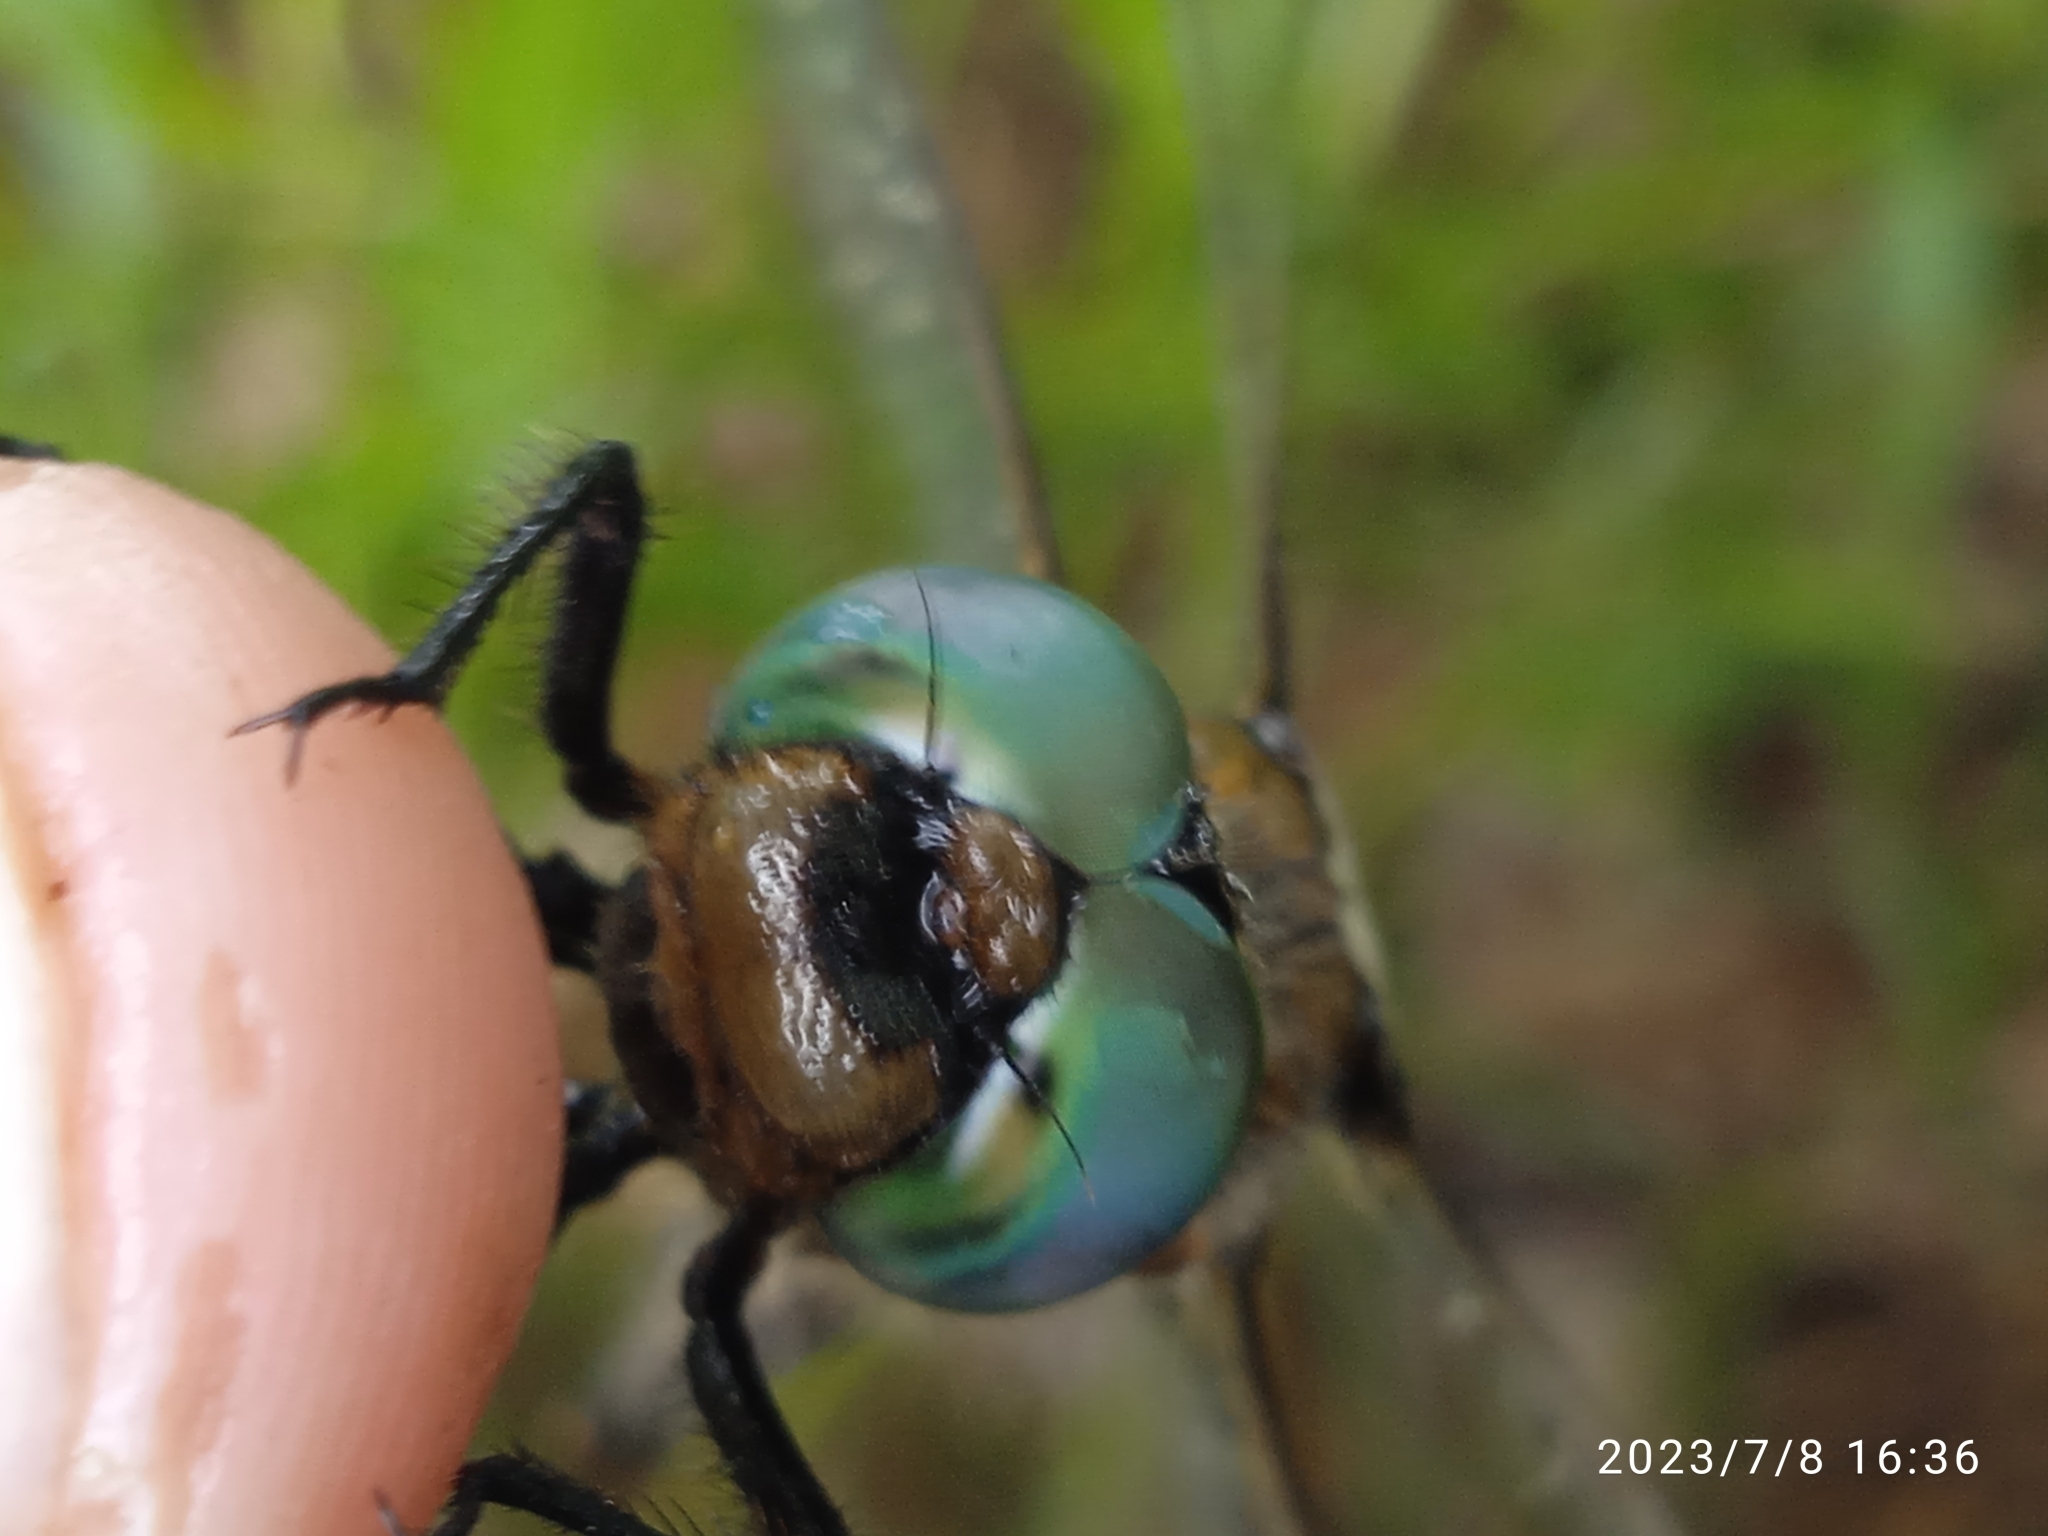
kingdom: Animalia
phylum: Arthropoda
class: Insecta
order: Odonata
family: Corduliidae
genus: Epitheca
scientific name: Epitheca bimaculata
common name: Eurasian baskettail
